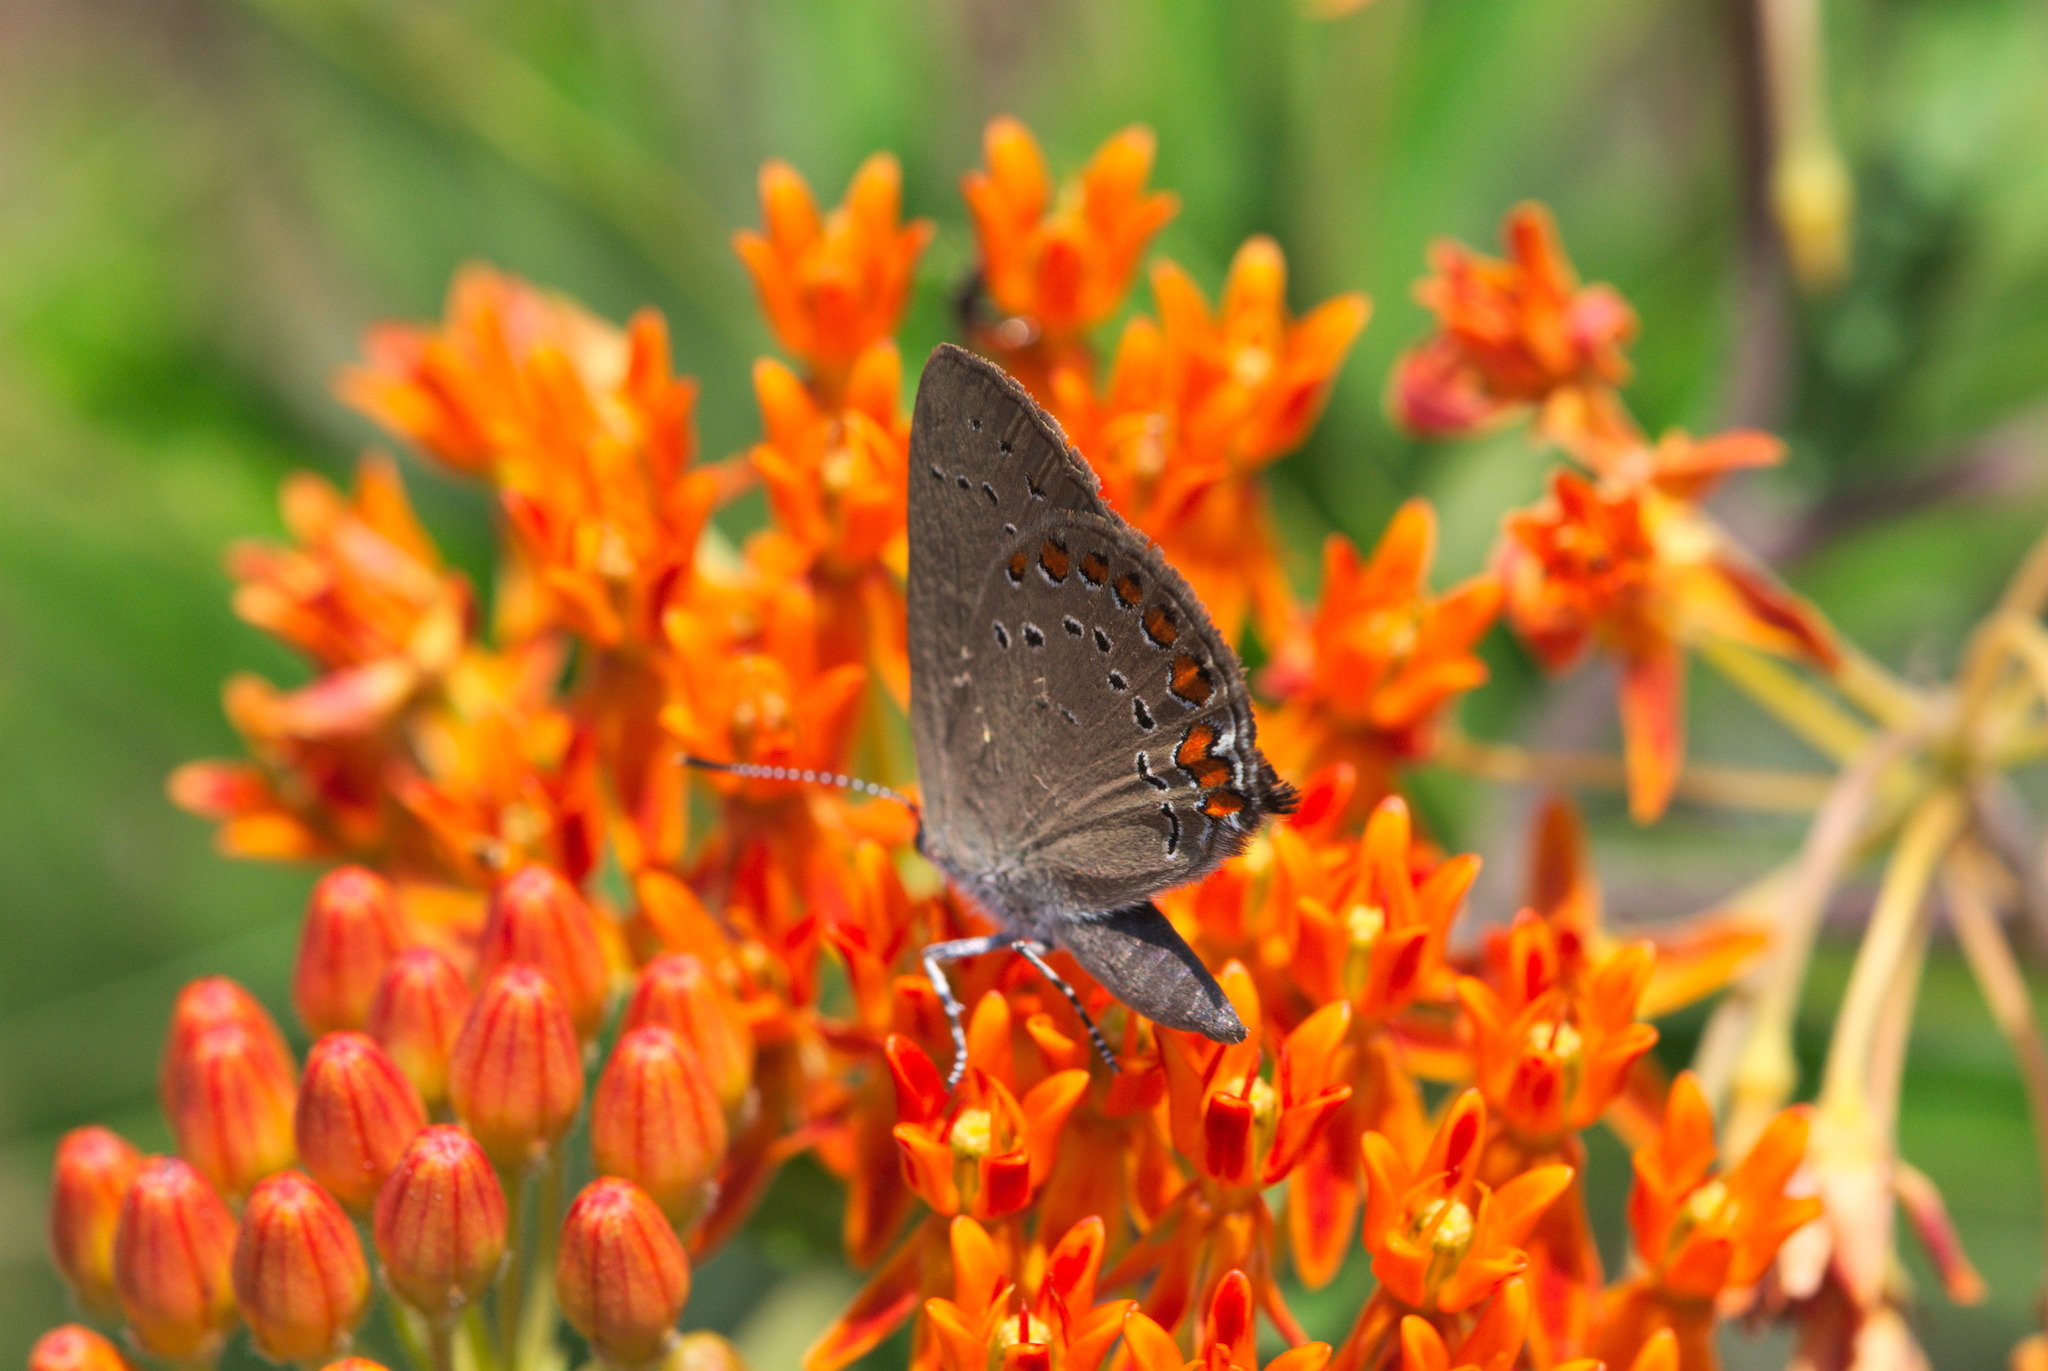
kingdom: Animalia
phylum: Arthropoda
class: Insecta
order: Lepidoptera
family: Lycaenidae
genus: Harkenclenus
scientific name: Harkenclenus titus
